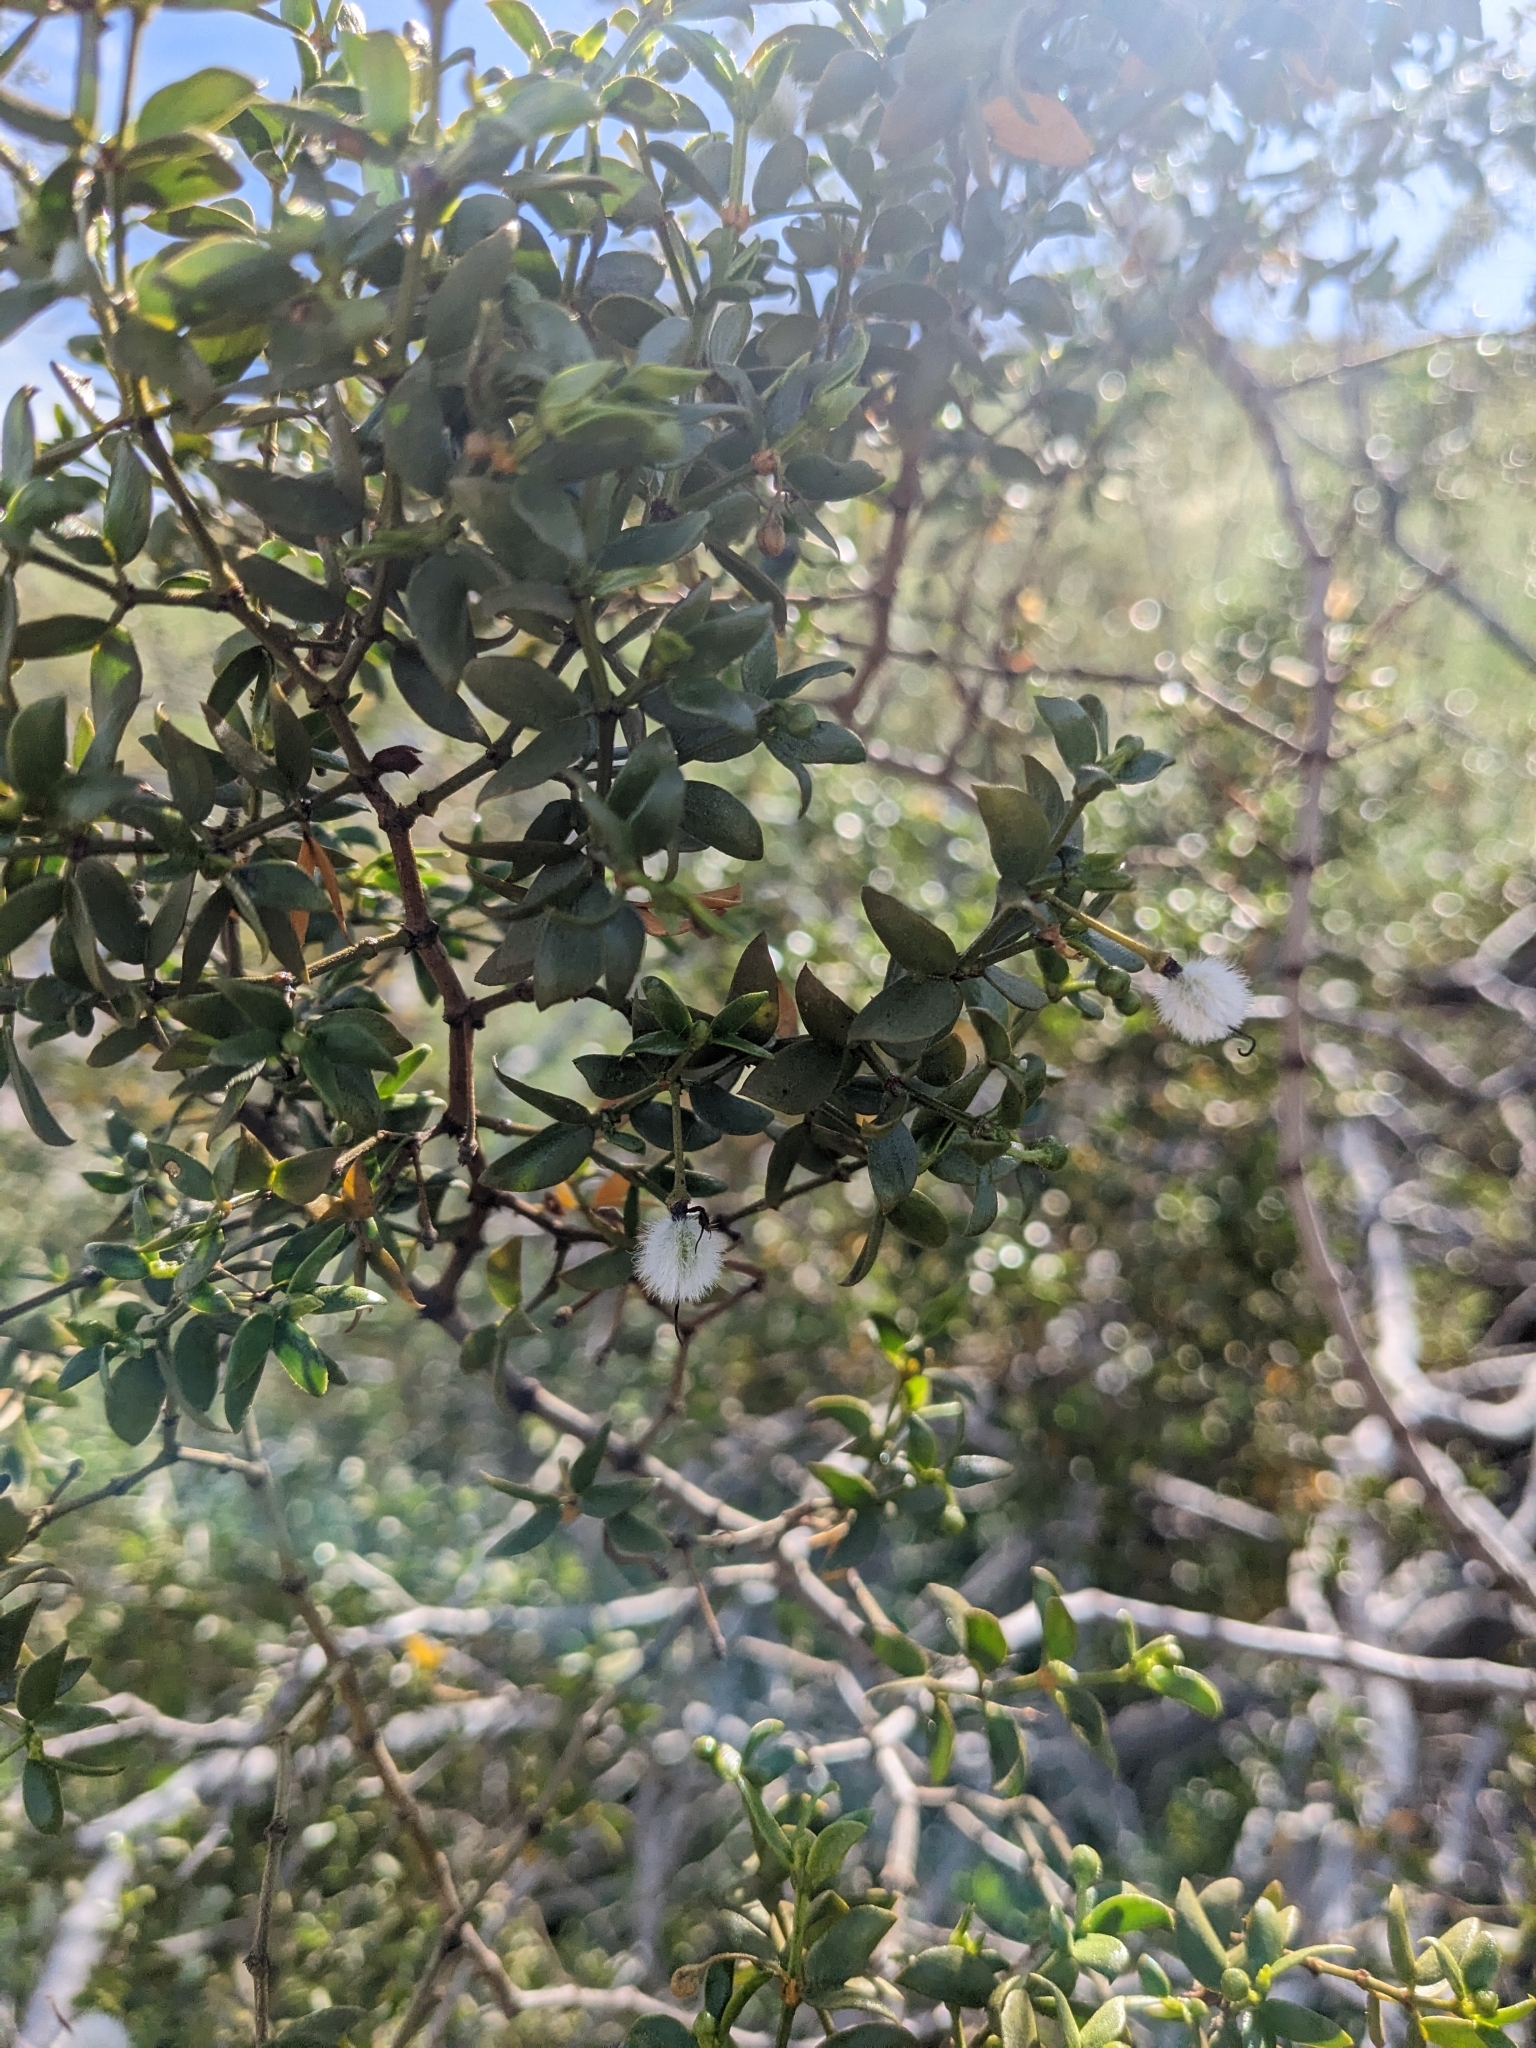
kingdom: Plantae
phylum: Tracheophyta
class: Magnoliopsida
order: Zygophyllales
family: Zygophyllaceae
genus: Larrea
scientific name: Larrea tridentata
